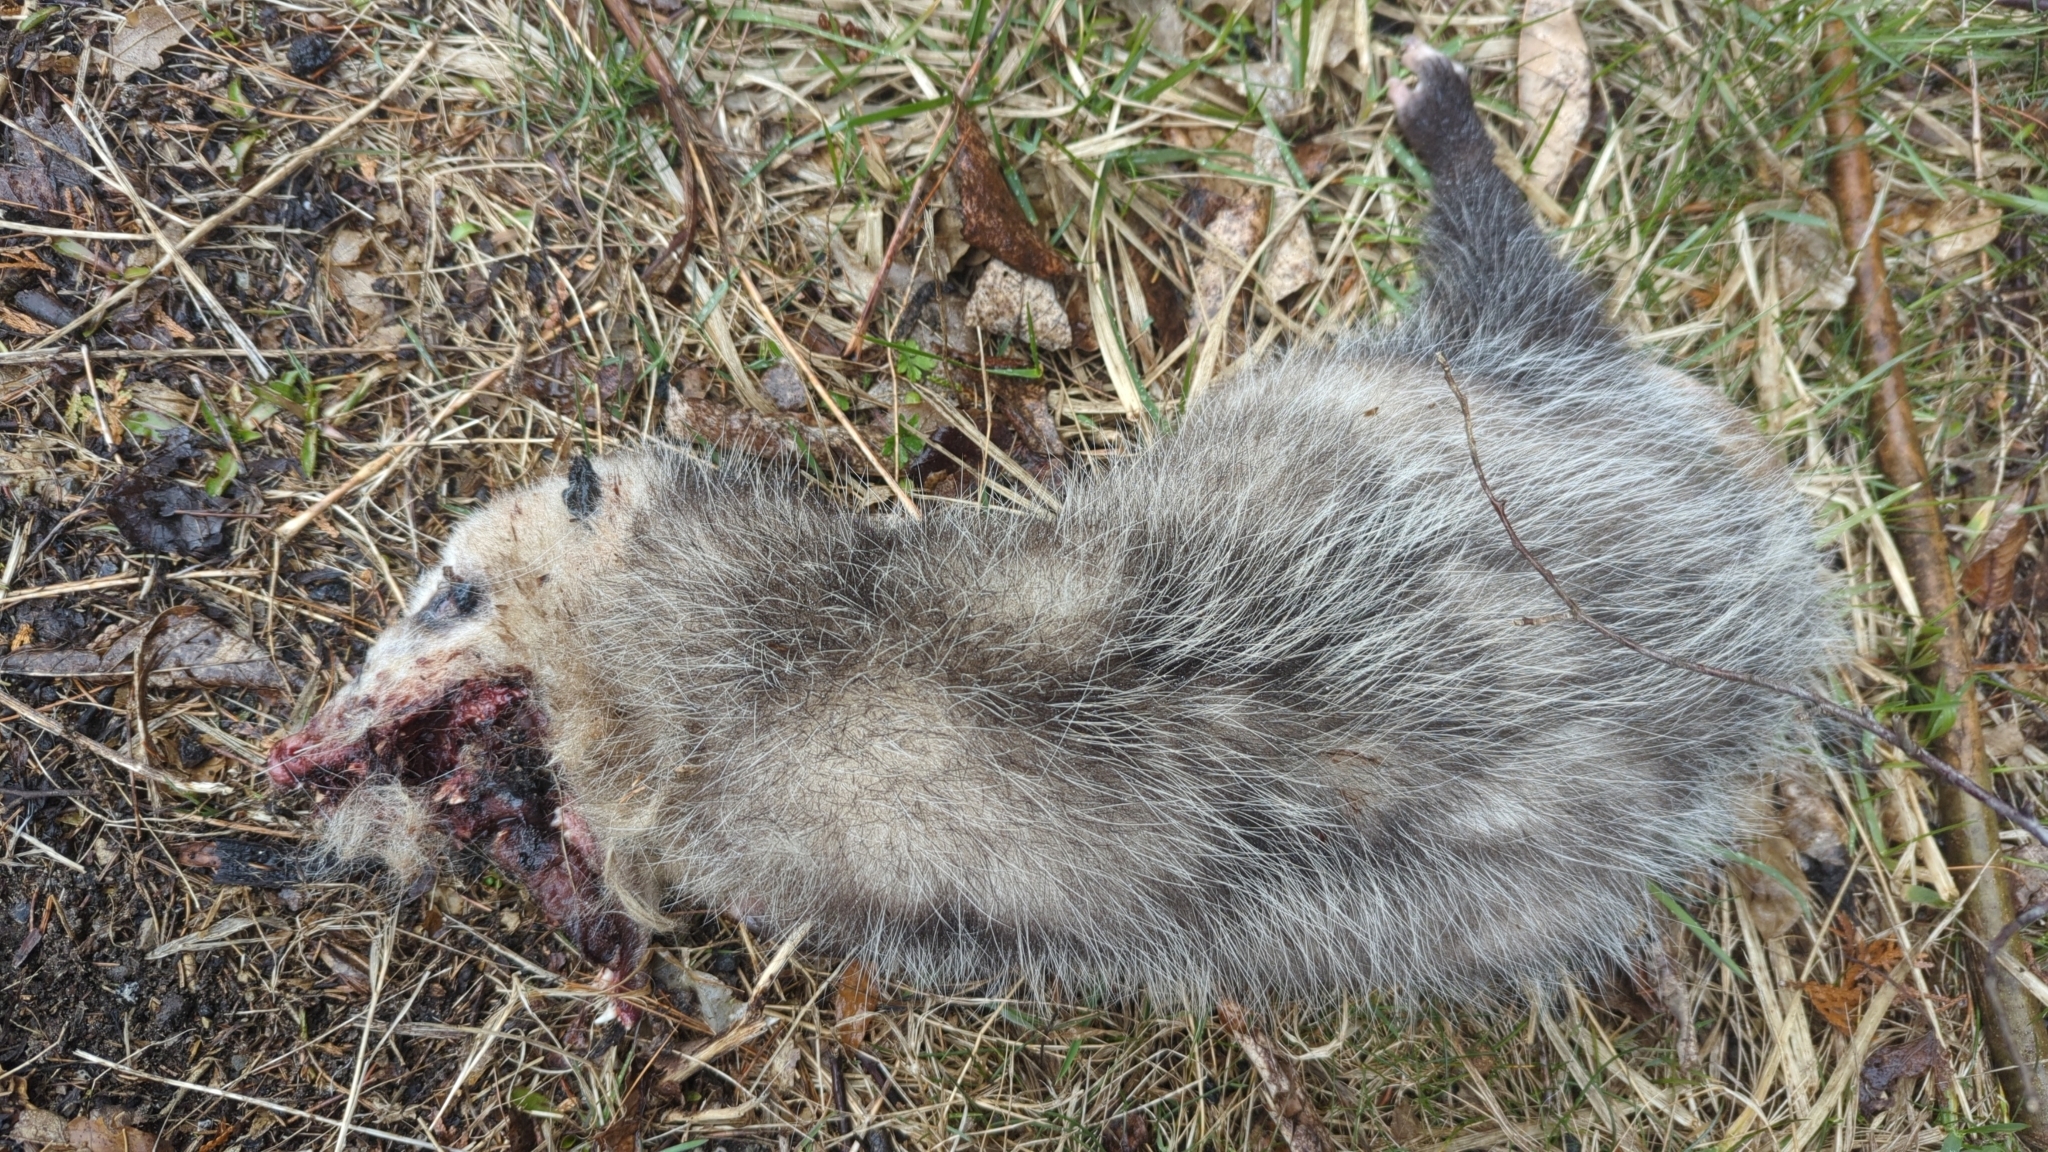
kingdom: Animalia
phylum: Chordata
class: Mammalia
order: Didelphimorphia
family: Didelphidae
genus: Didelphis
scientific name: Didelphis virginiana
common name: Virginia opossum
